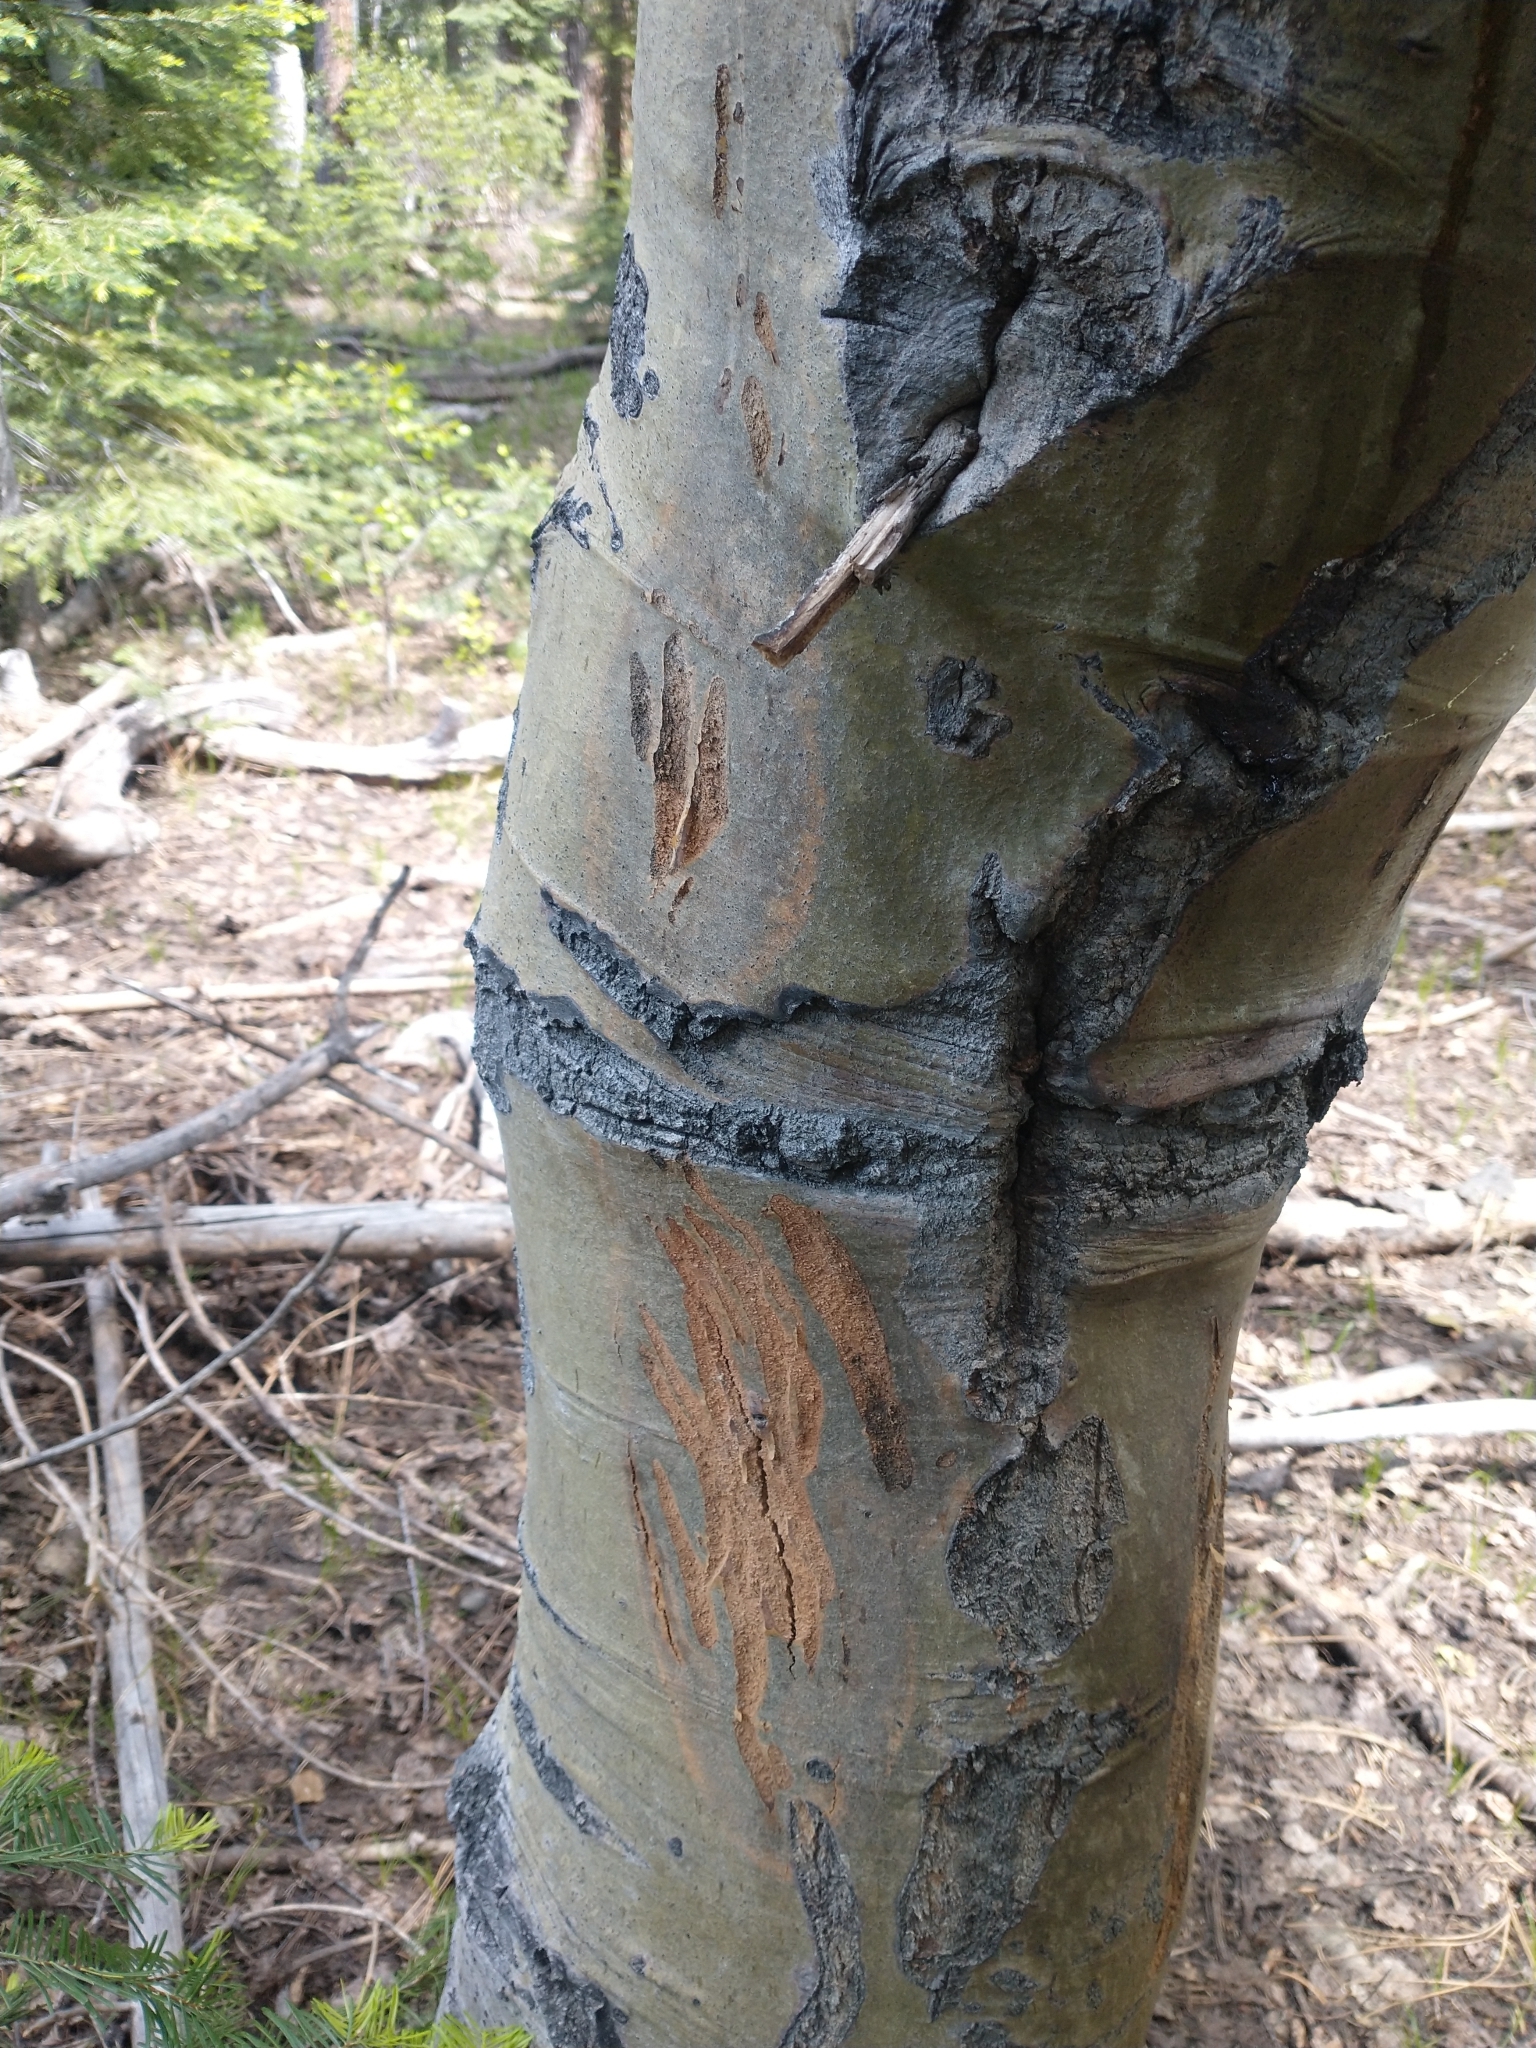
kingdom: Plantae
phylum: Tracheophyta
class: Magnoliopsida
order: Malpighiales
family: Salicaceae
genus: Populus
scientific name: Populus tremuloides
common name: Quaking aspen
